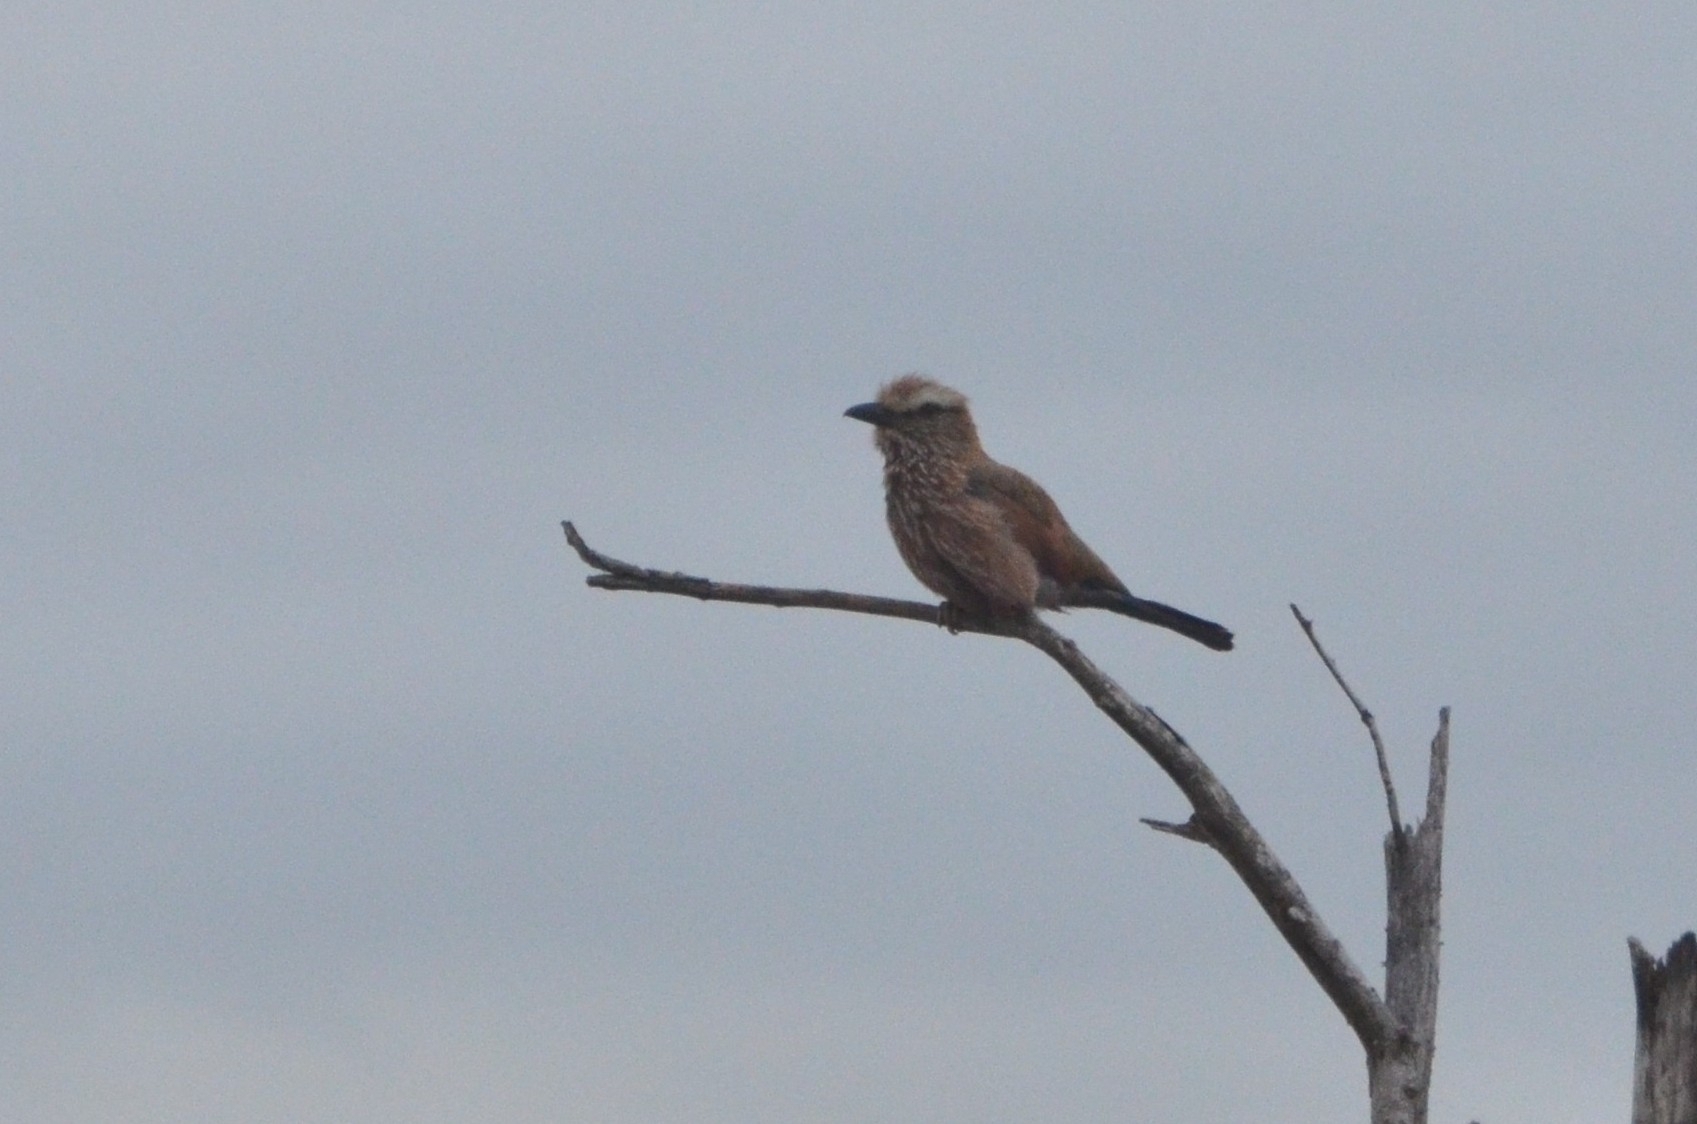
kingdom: Animalia
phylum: Chordata
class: Aves
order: Coraciiformes
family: Coraciidae
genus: Coracias
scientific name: Coracias naevius
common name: Purple roller
